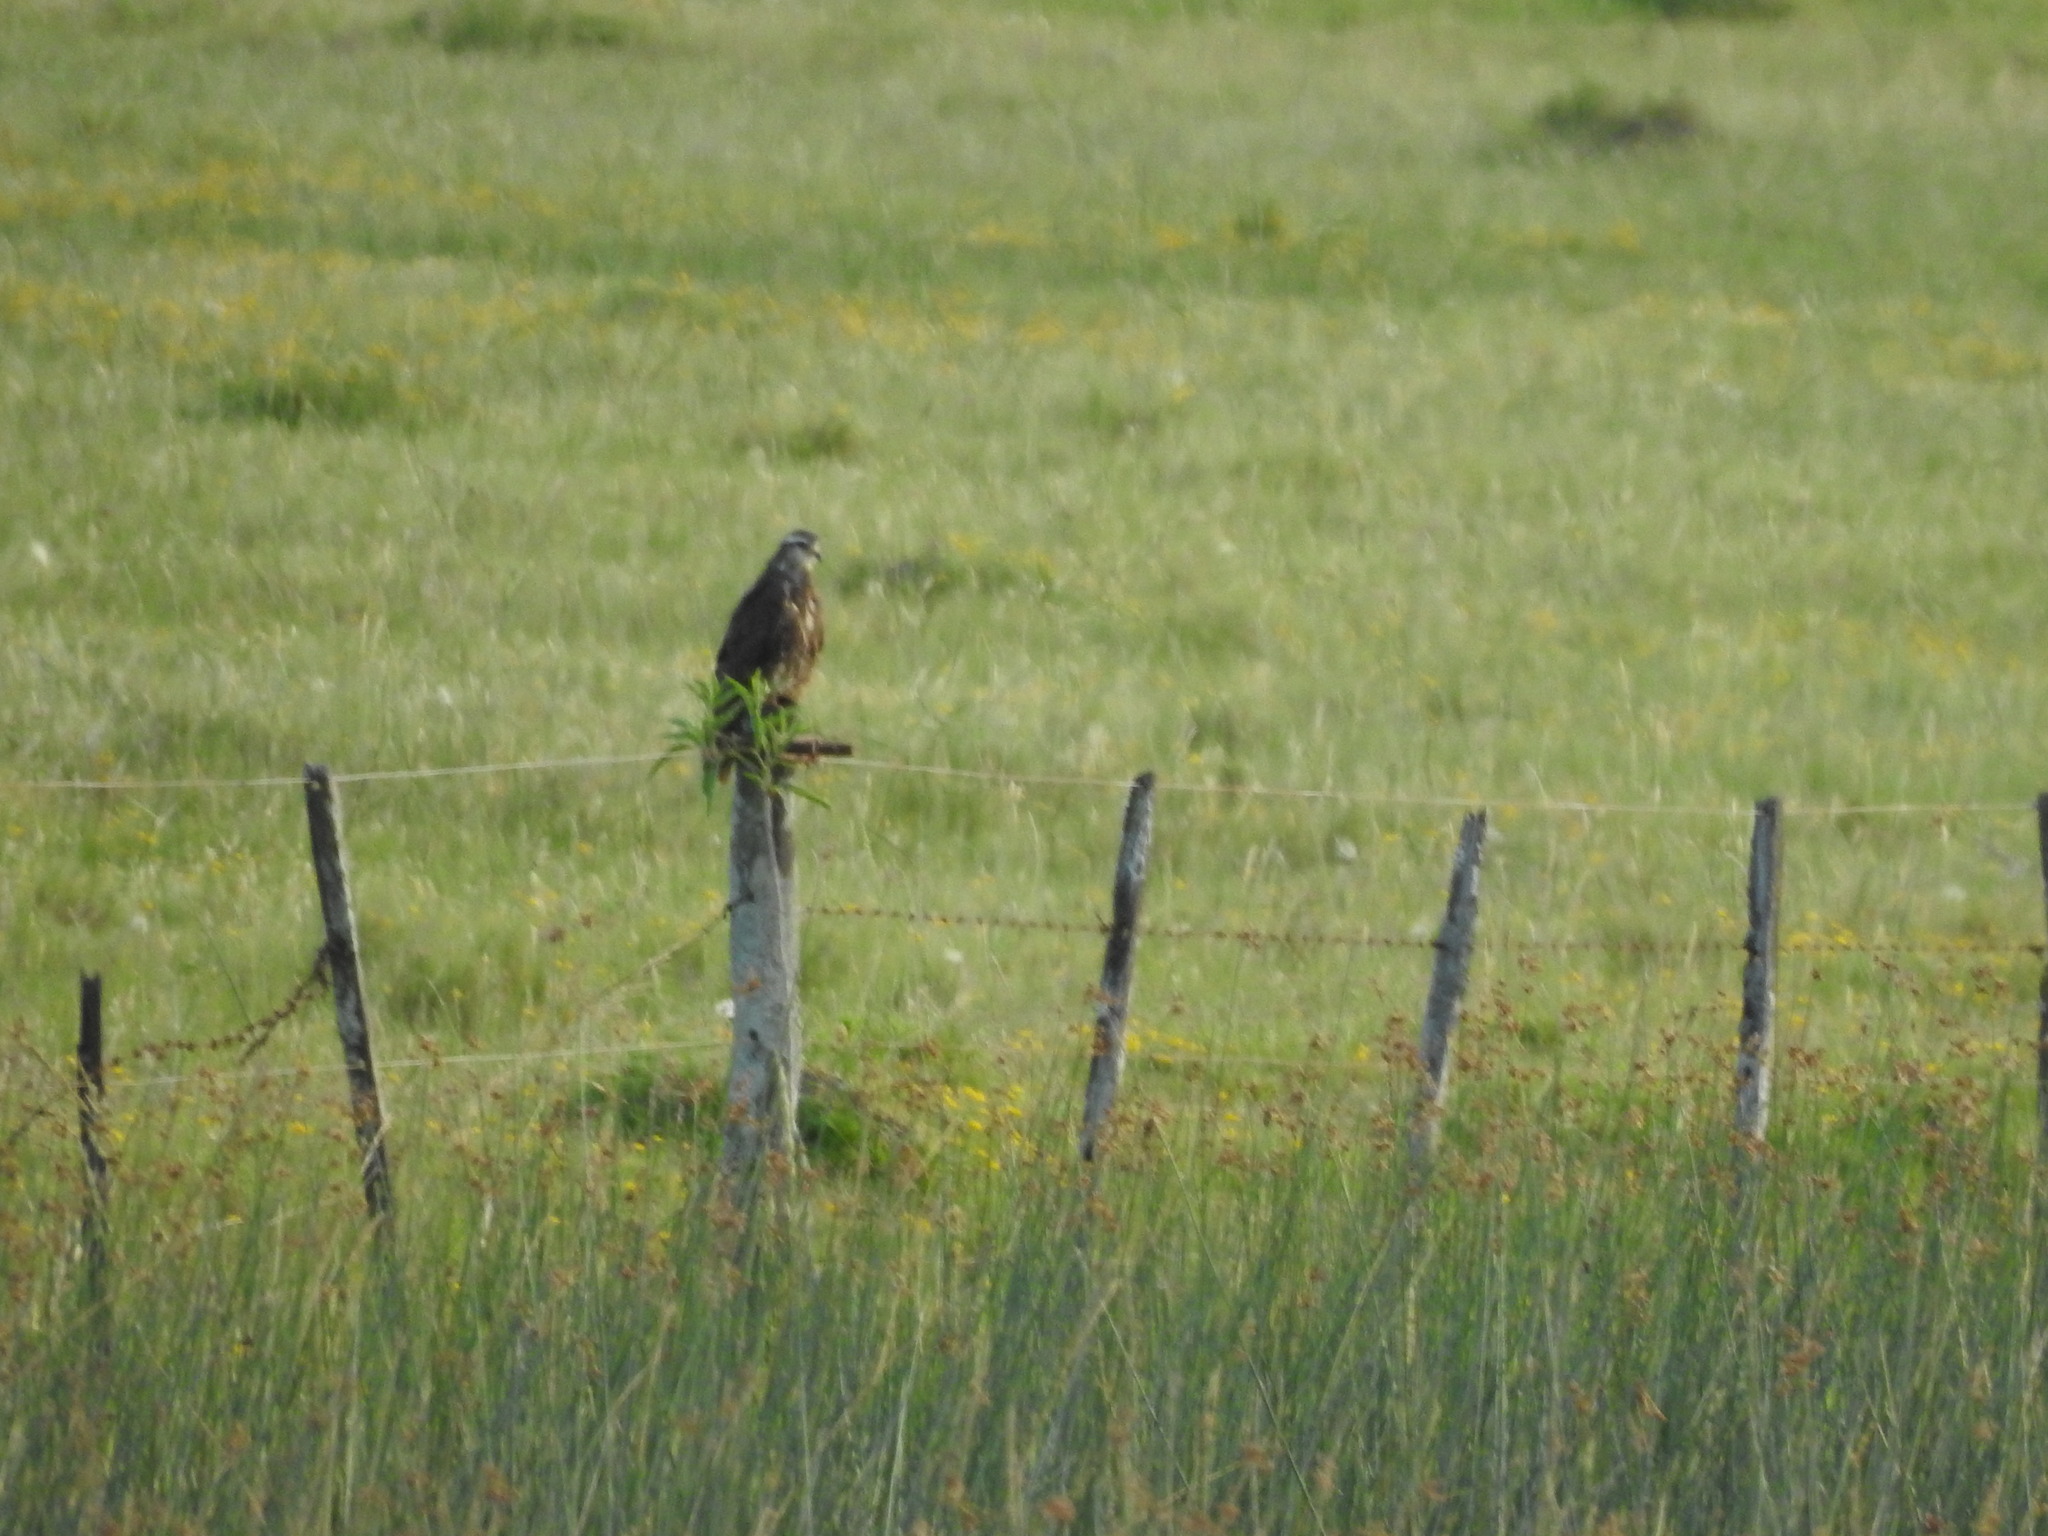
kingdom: Animalia
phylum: Chordata
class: Aves
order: Accipitriformes
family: Accipitridae
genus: Rostrhamus
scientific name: Rostrhamus sociabilis
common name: Snail kite
